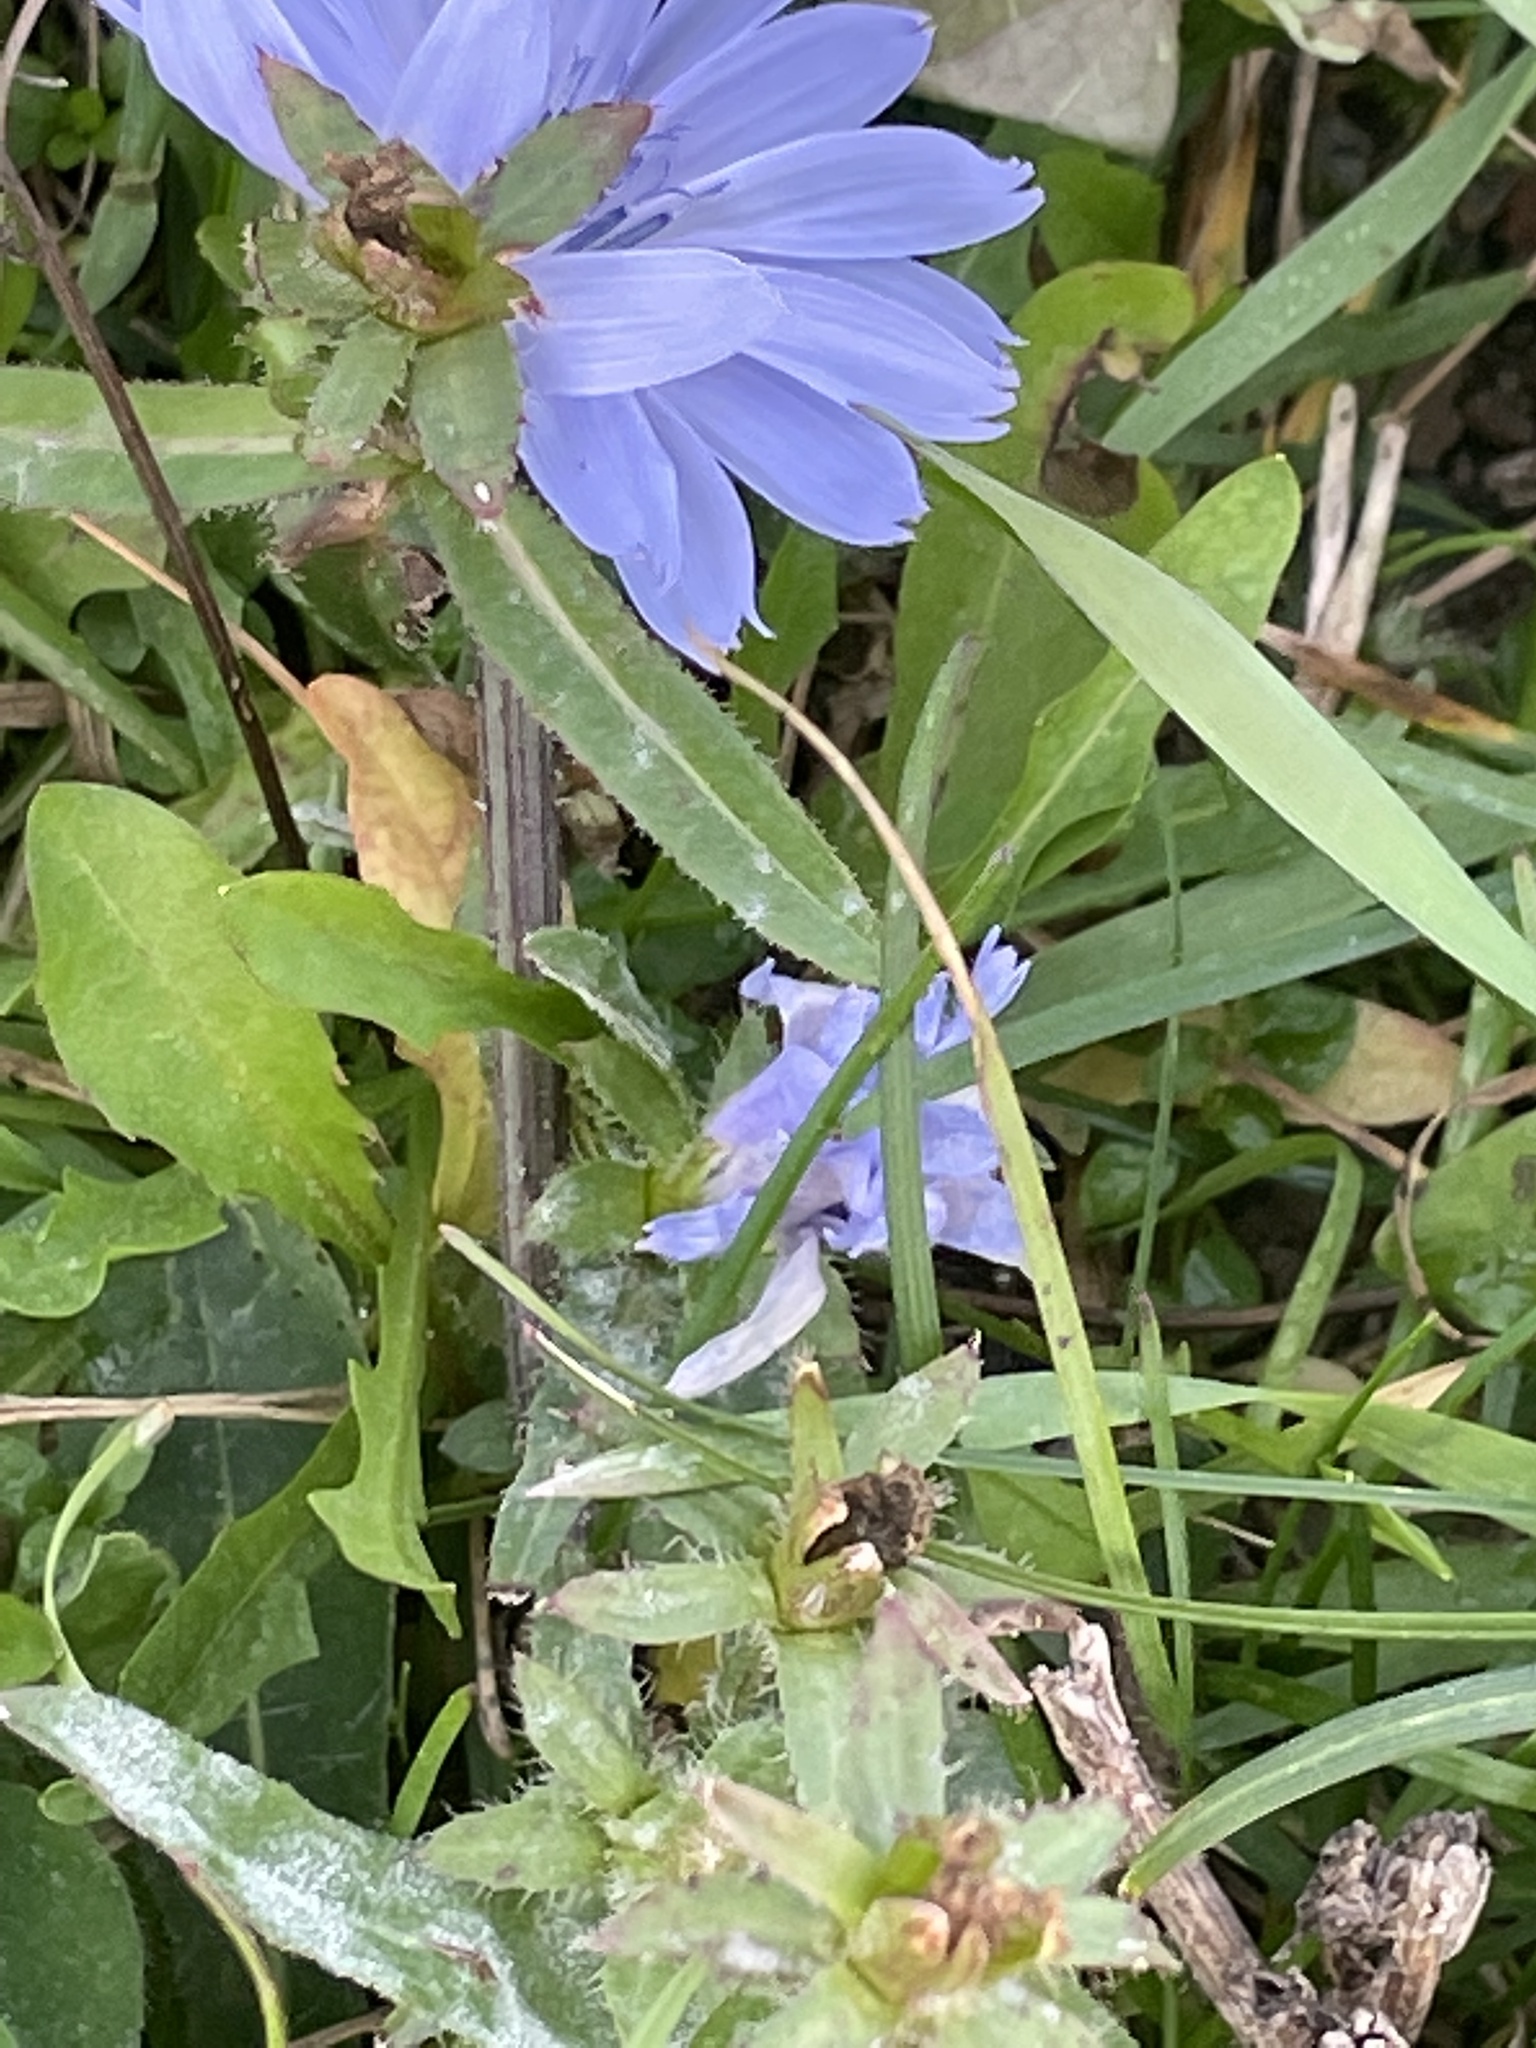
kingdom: Plantae
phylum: Tracheophyta
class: Magnoliopsida
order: Asterales
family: Asteraceae
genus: Cichorium
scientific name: Cichorium intybus
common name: Chicory
